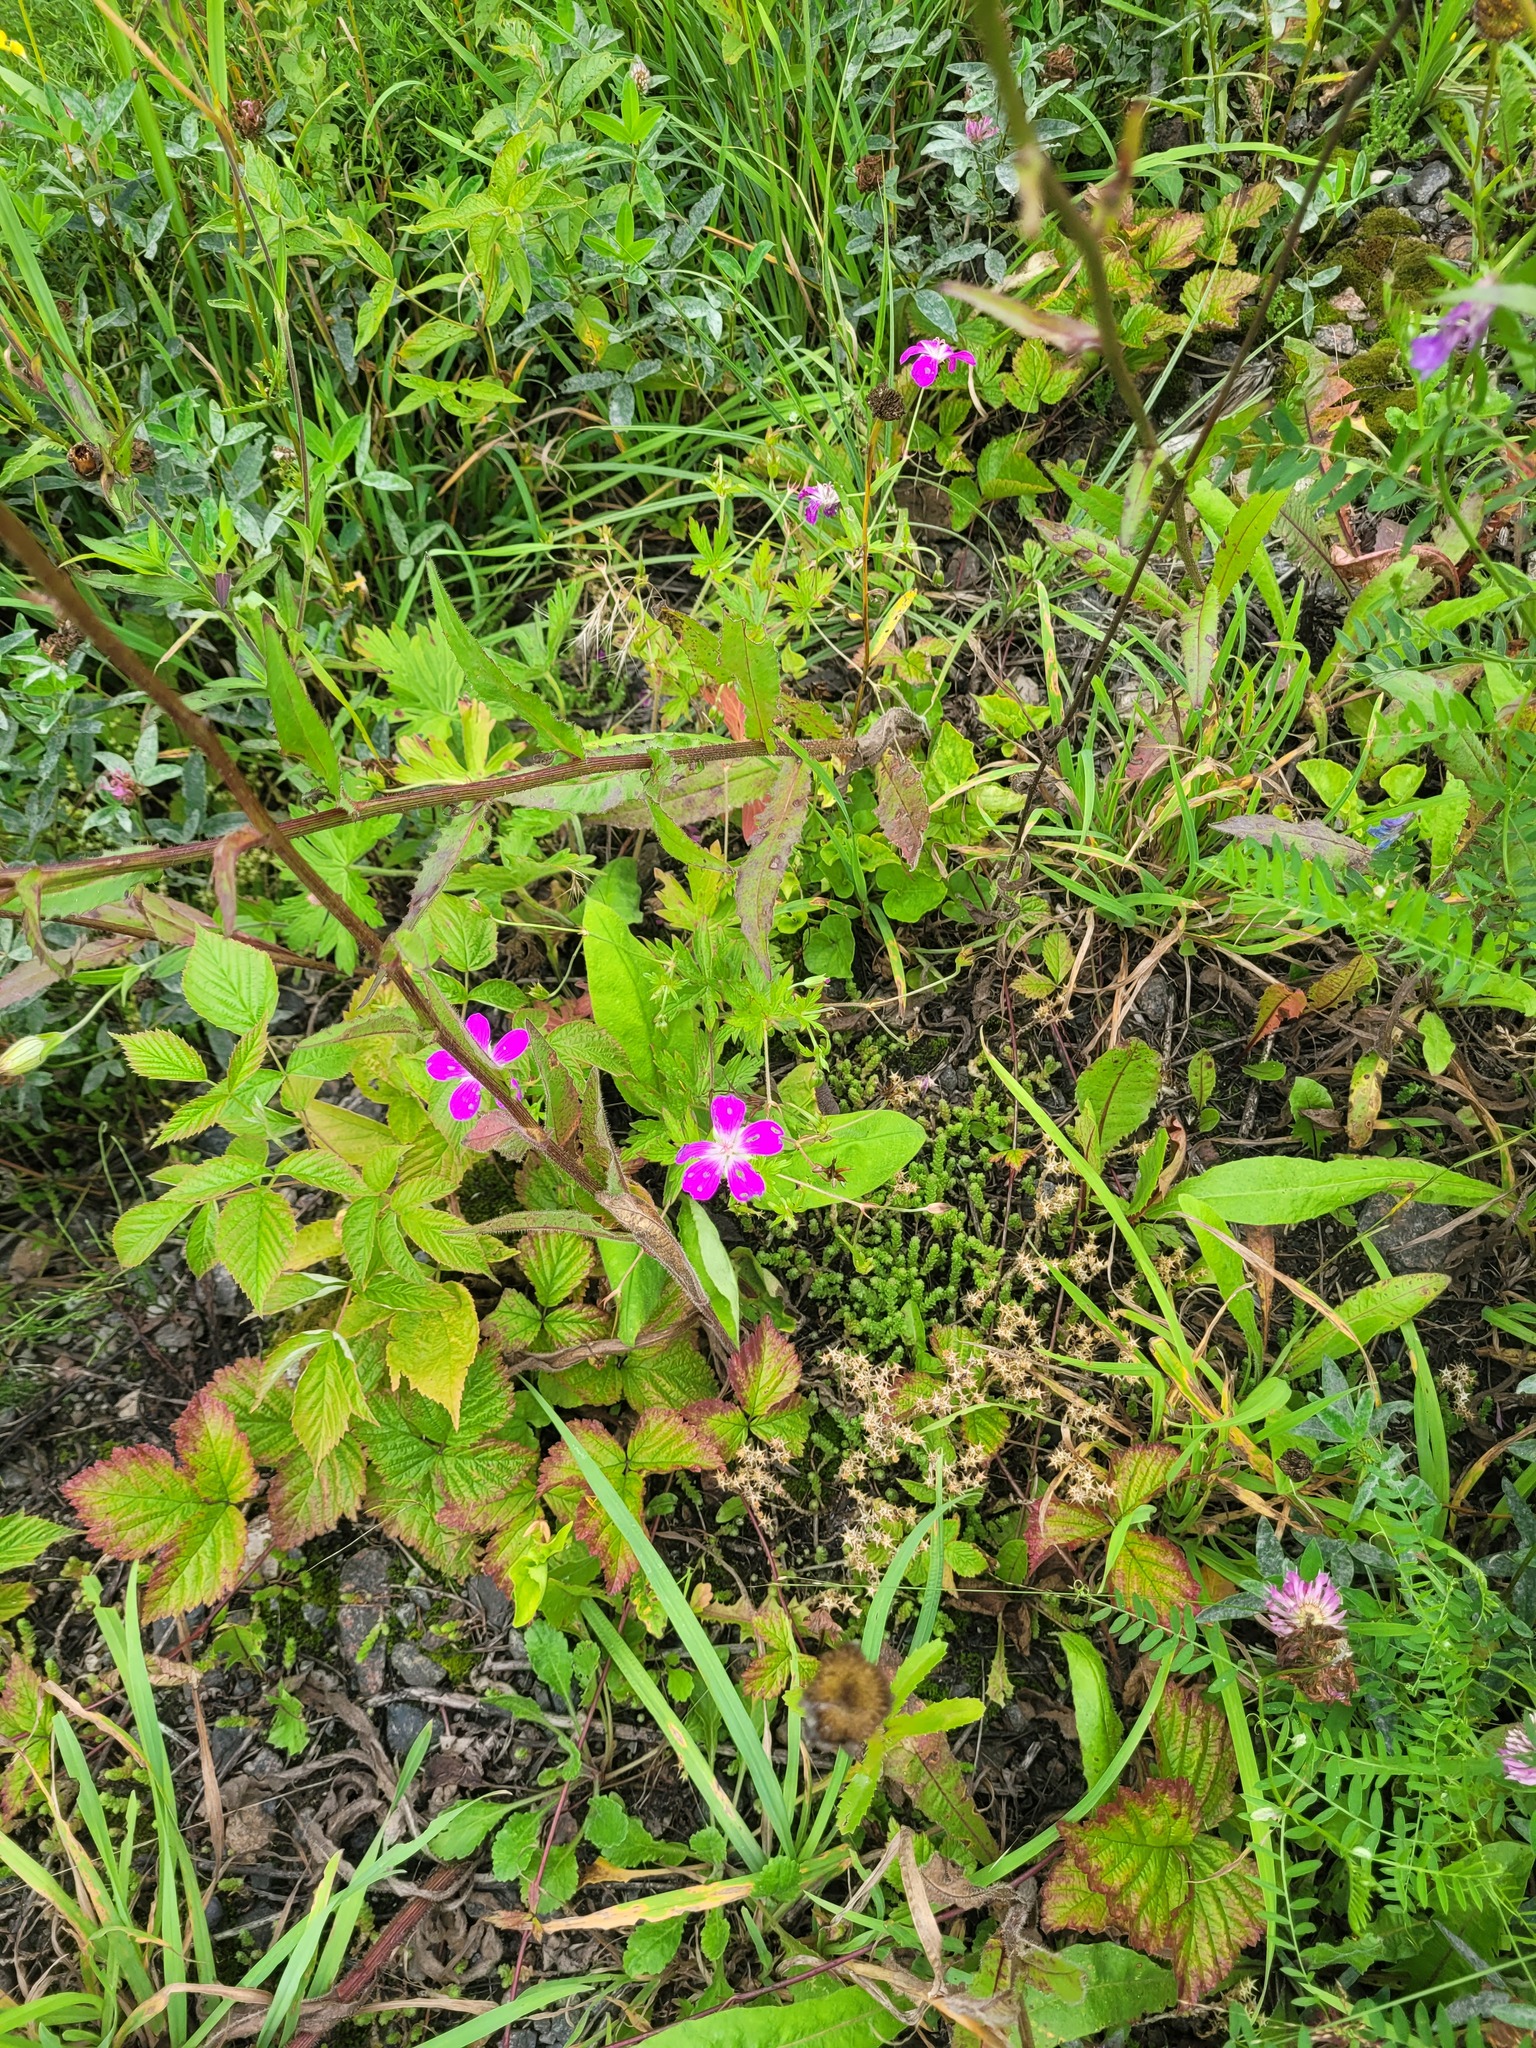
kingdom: Plantae
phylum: Tracheophyta
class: Magnoliopsida
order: Rosales
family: Rosaceae
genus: Rubus
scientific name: Rubus saxatilis
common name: Stone bramble
